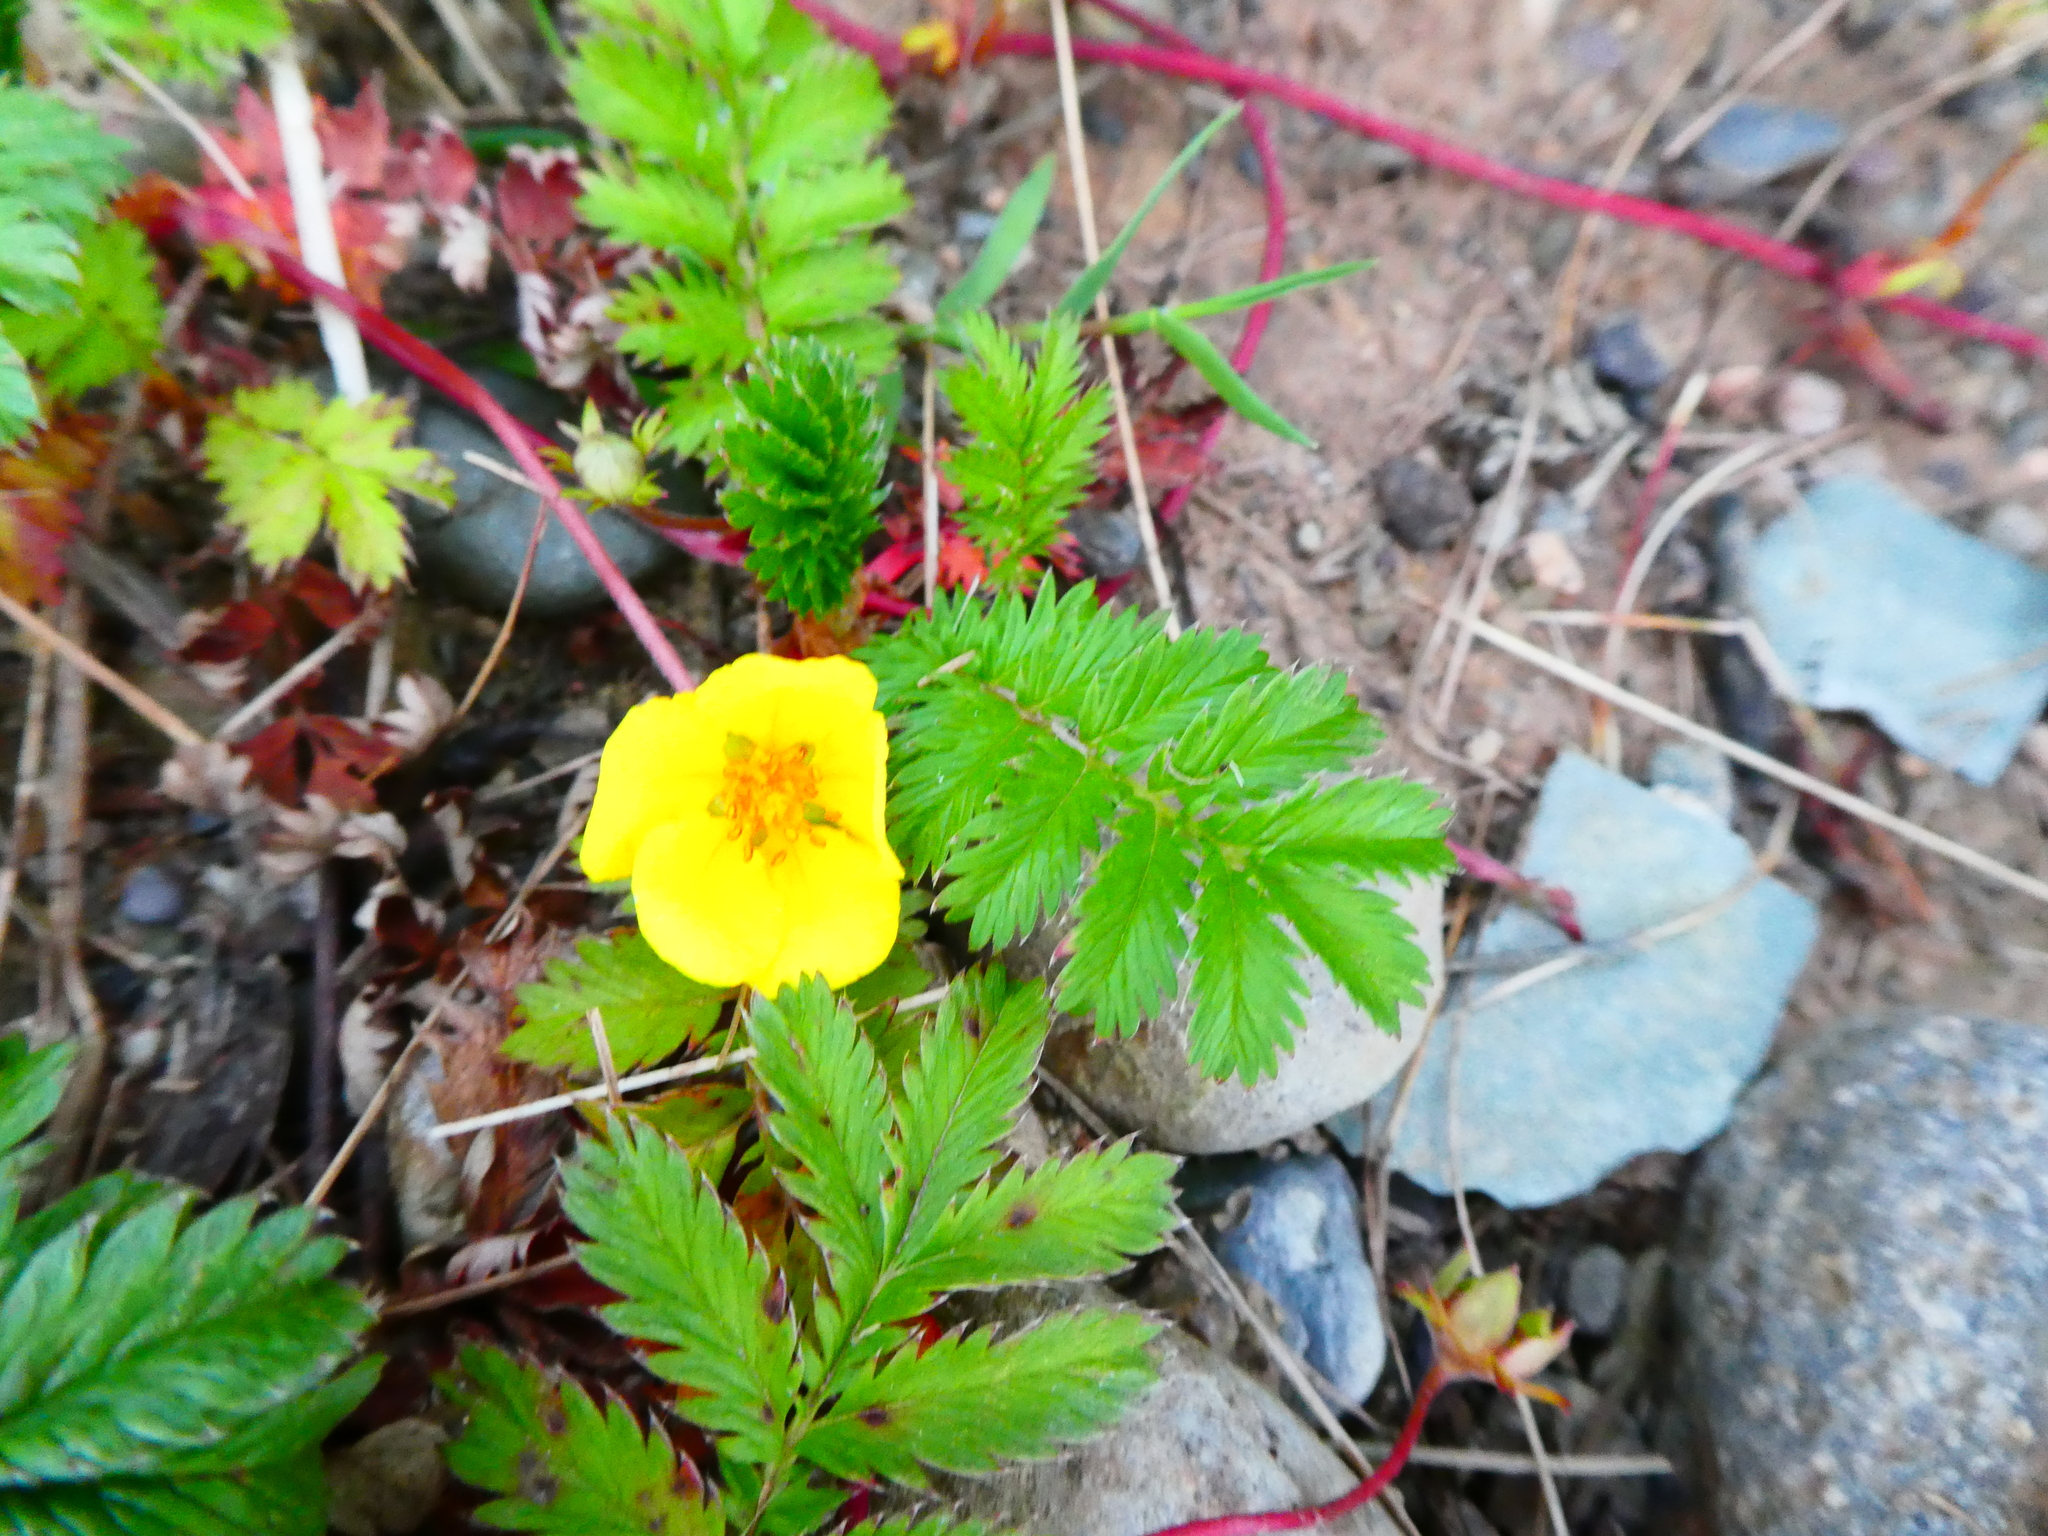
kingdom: Plantae
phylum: Tracheophyta
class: Magnoliopsida
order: Rosales
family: Rosaceae
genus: Argentina
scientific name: Argentina anserina
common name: Common silverweed
